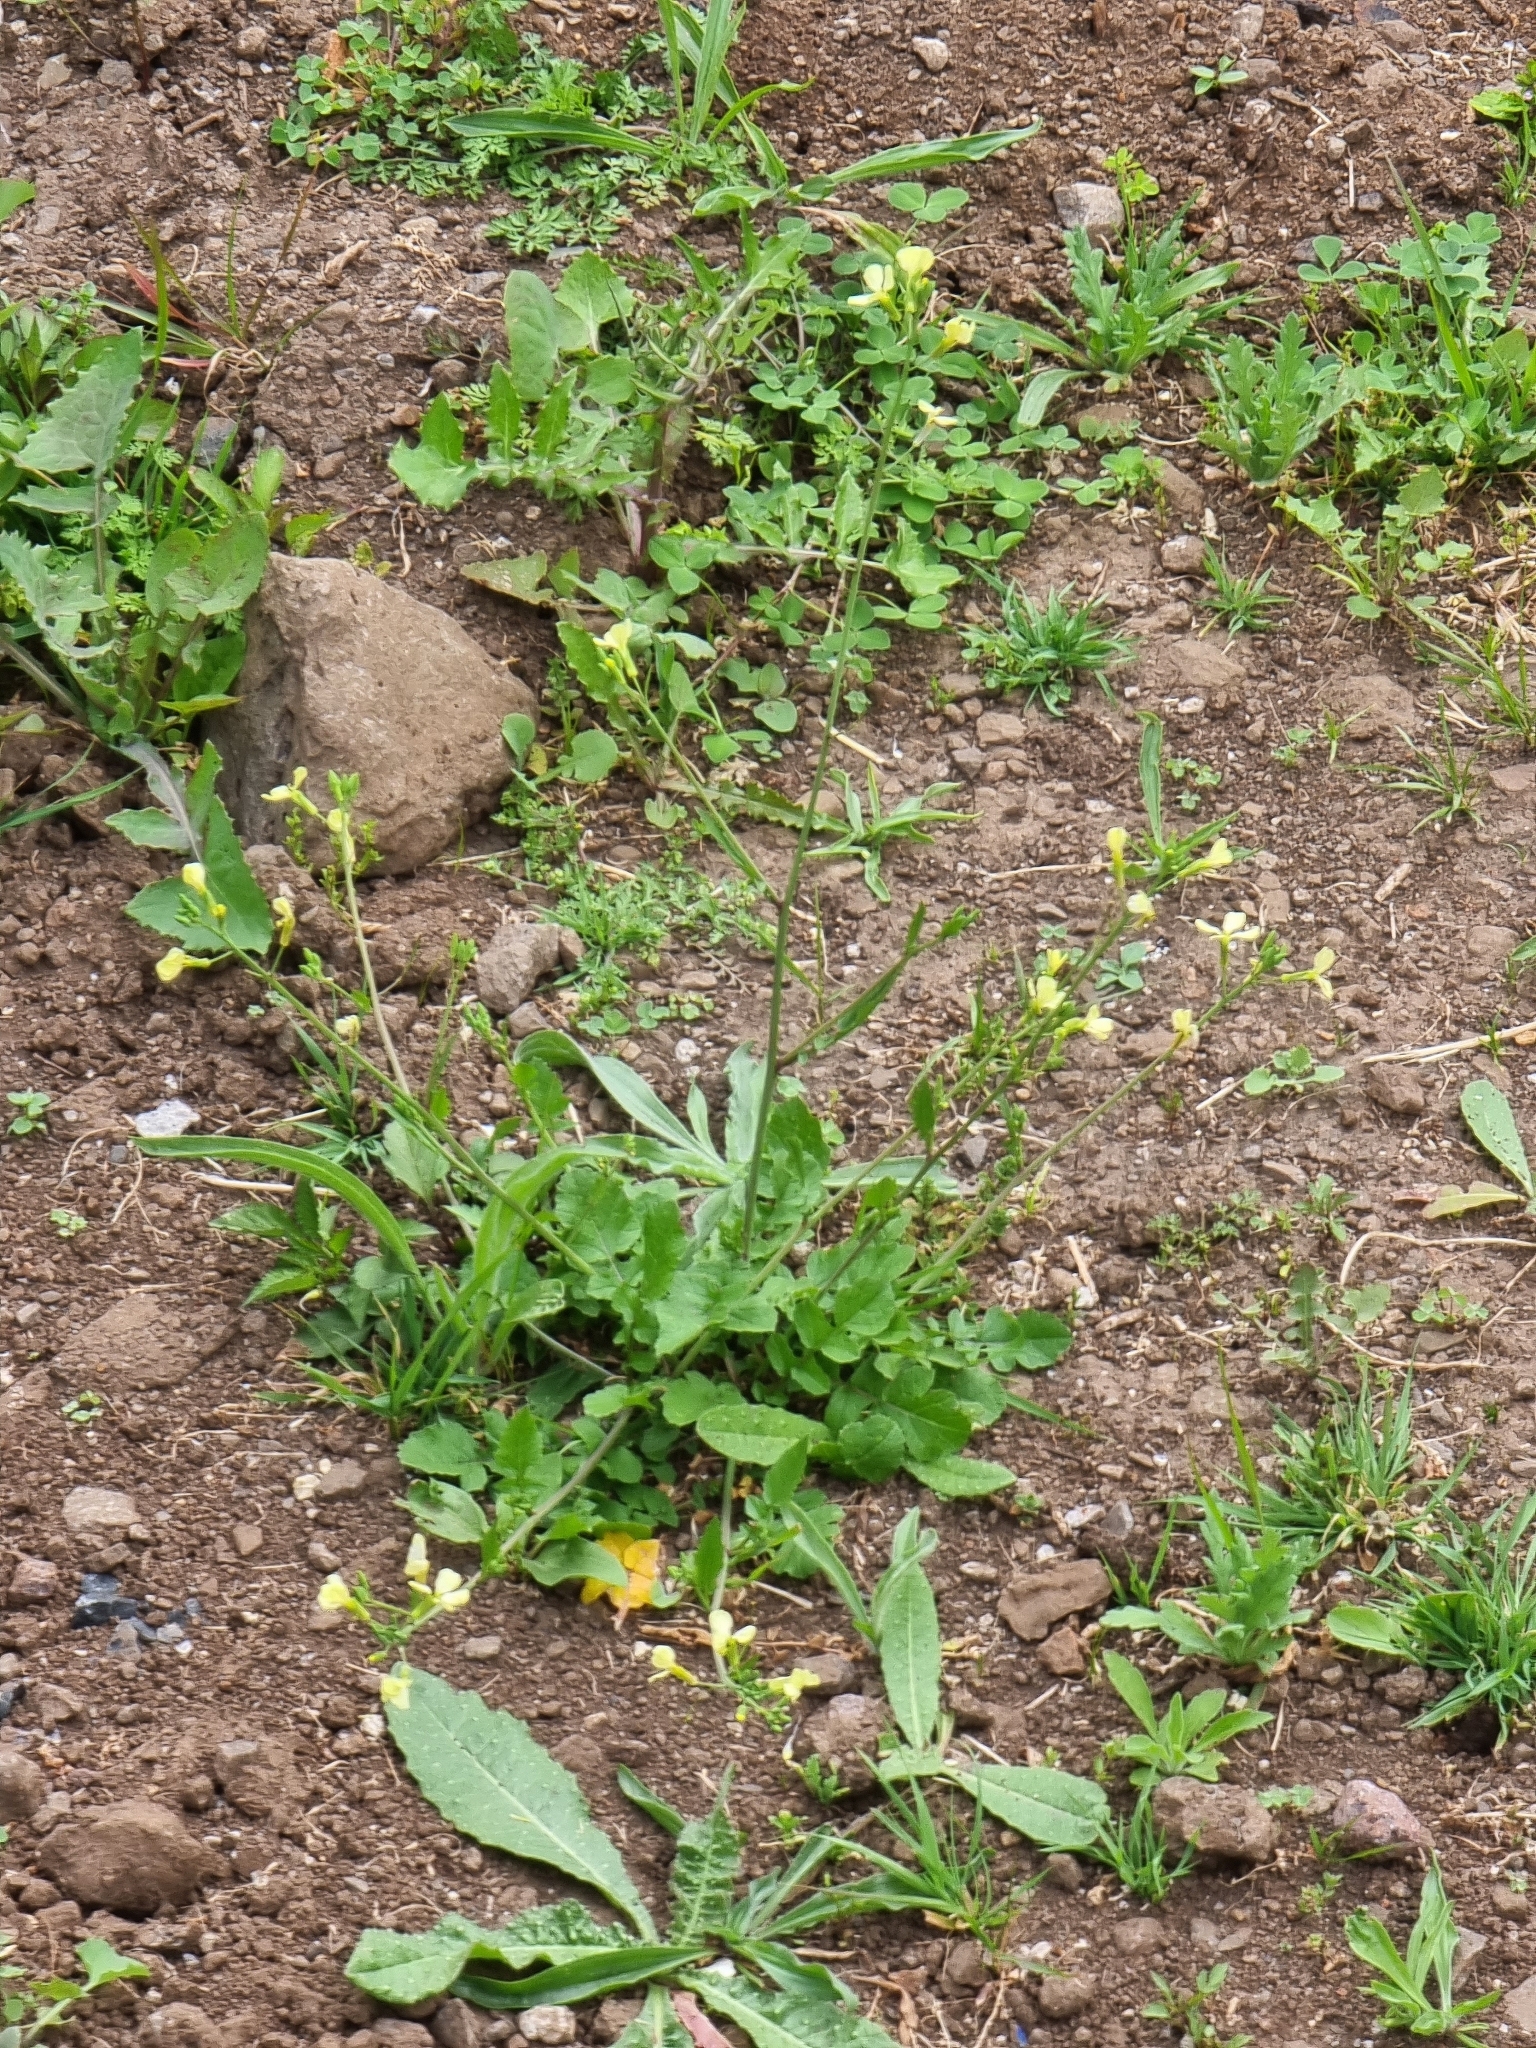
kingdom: Plantae
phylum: Tracheophyta
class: Magnoliopsida
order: Brassicales
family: Brassicaceae
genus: Raphanus
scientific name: Raphanus raphanistrum
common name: Wild radish
